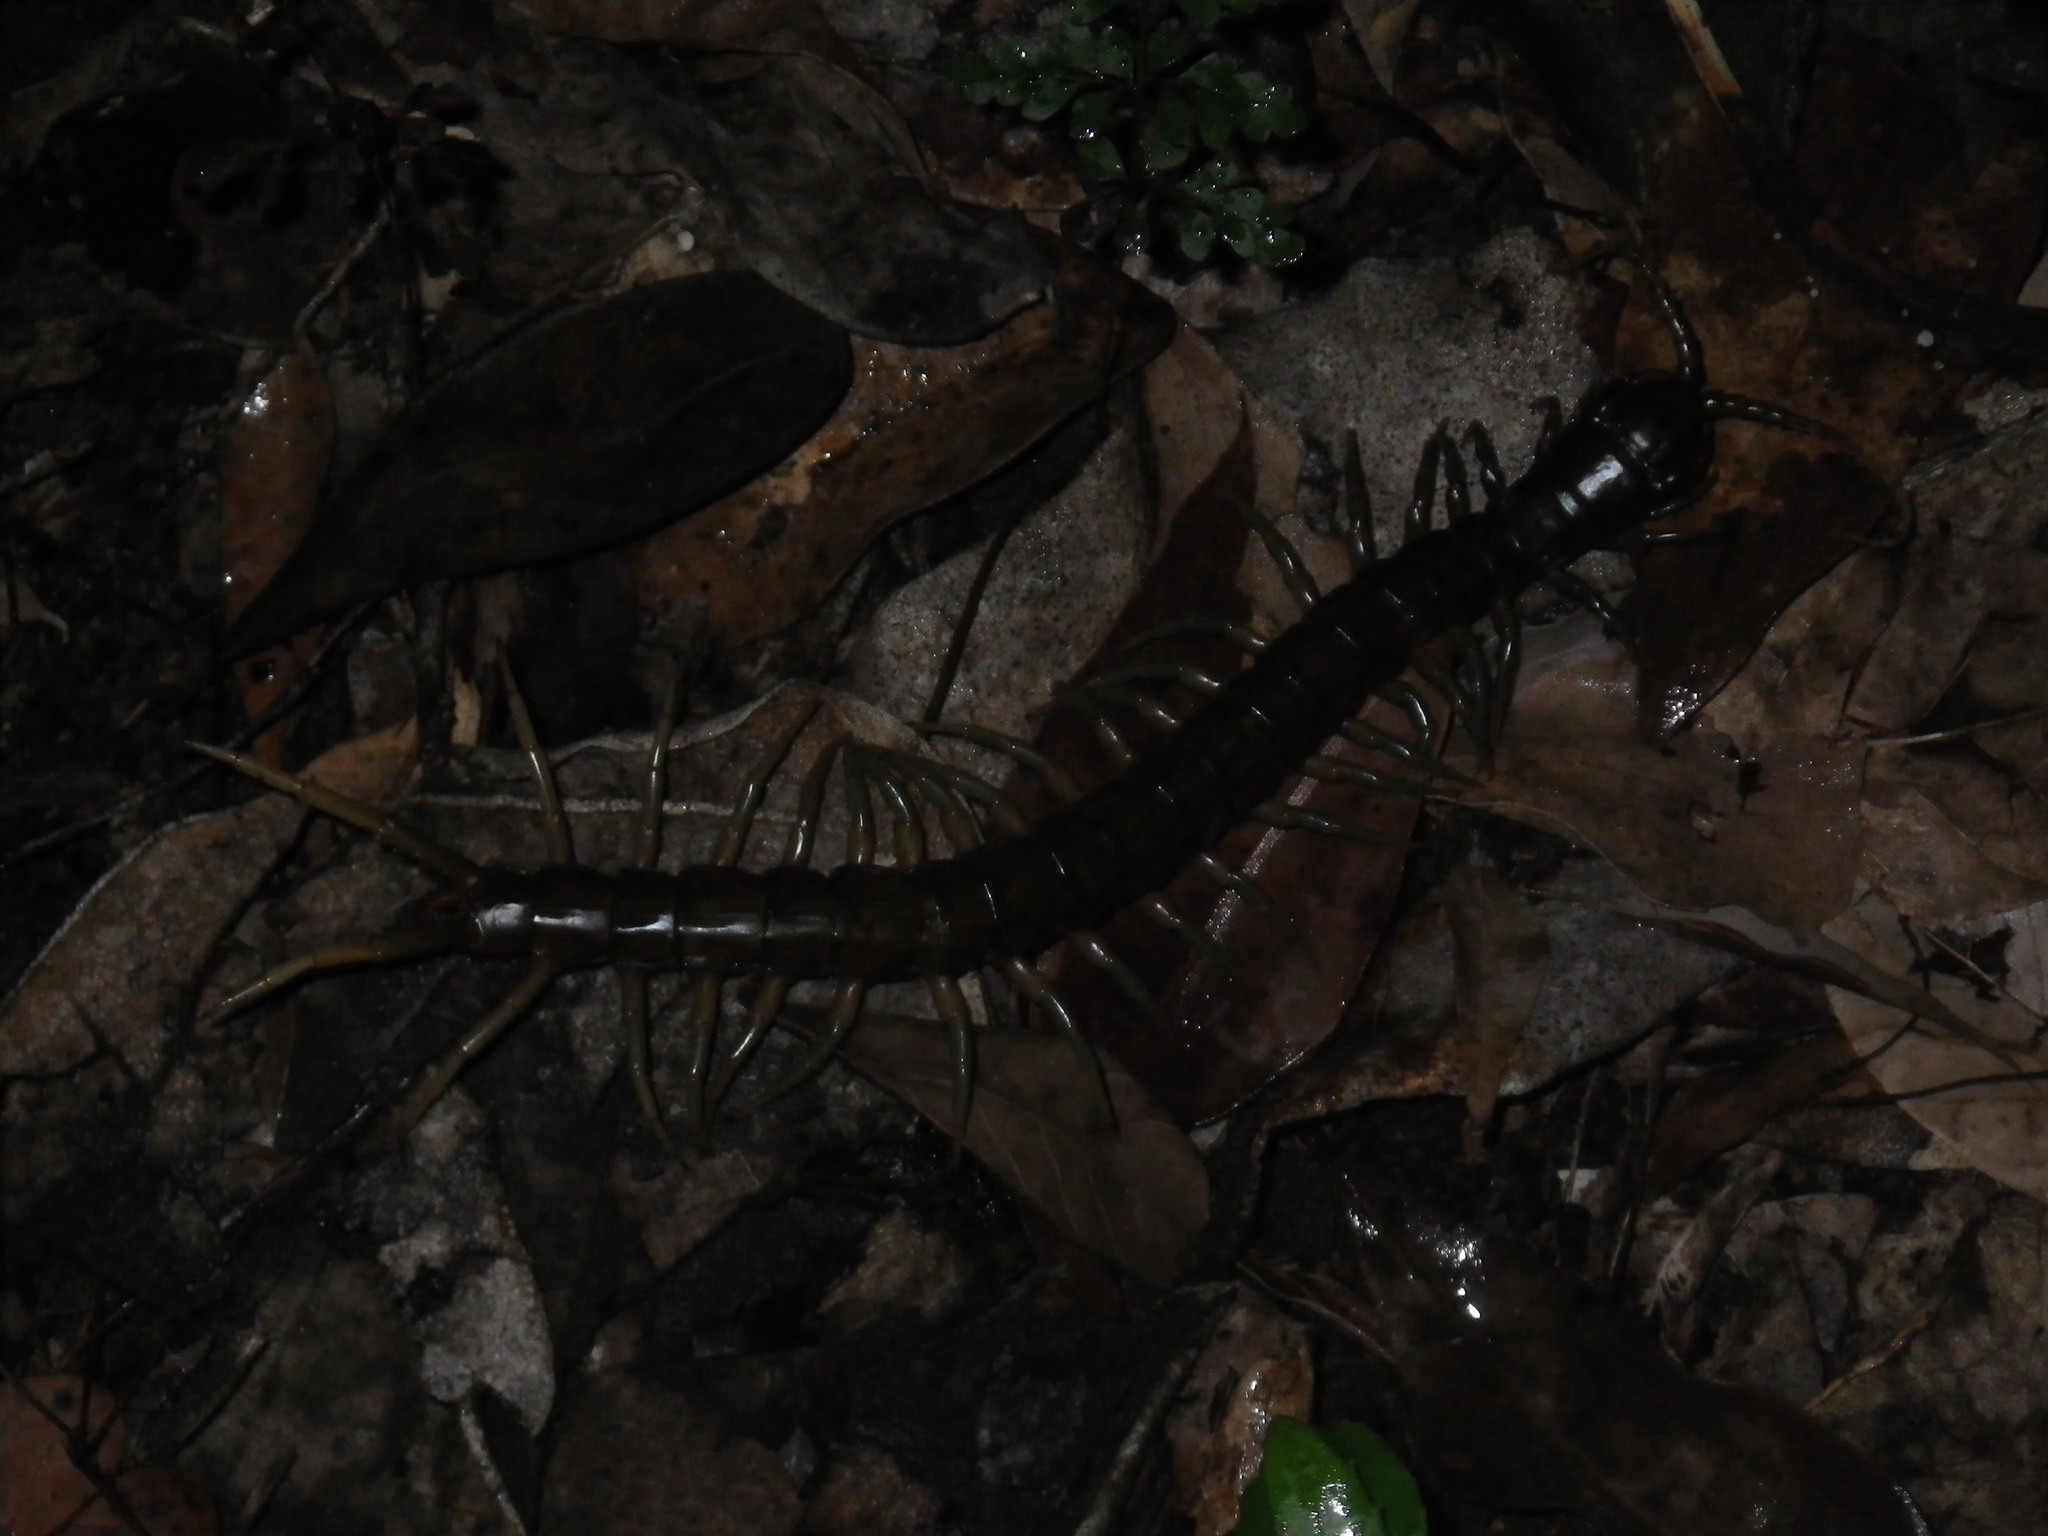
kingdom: Animalia
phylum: Arthropoda
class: Chilopoda
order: Scolopendromorpha
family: Scolopendridae
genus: Ethmostigmus
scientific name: Ethmostigmus rubripes
